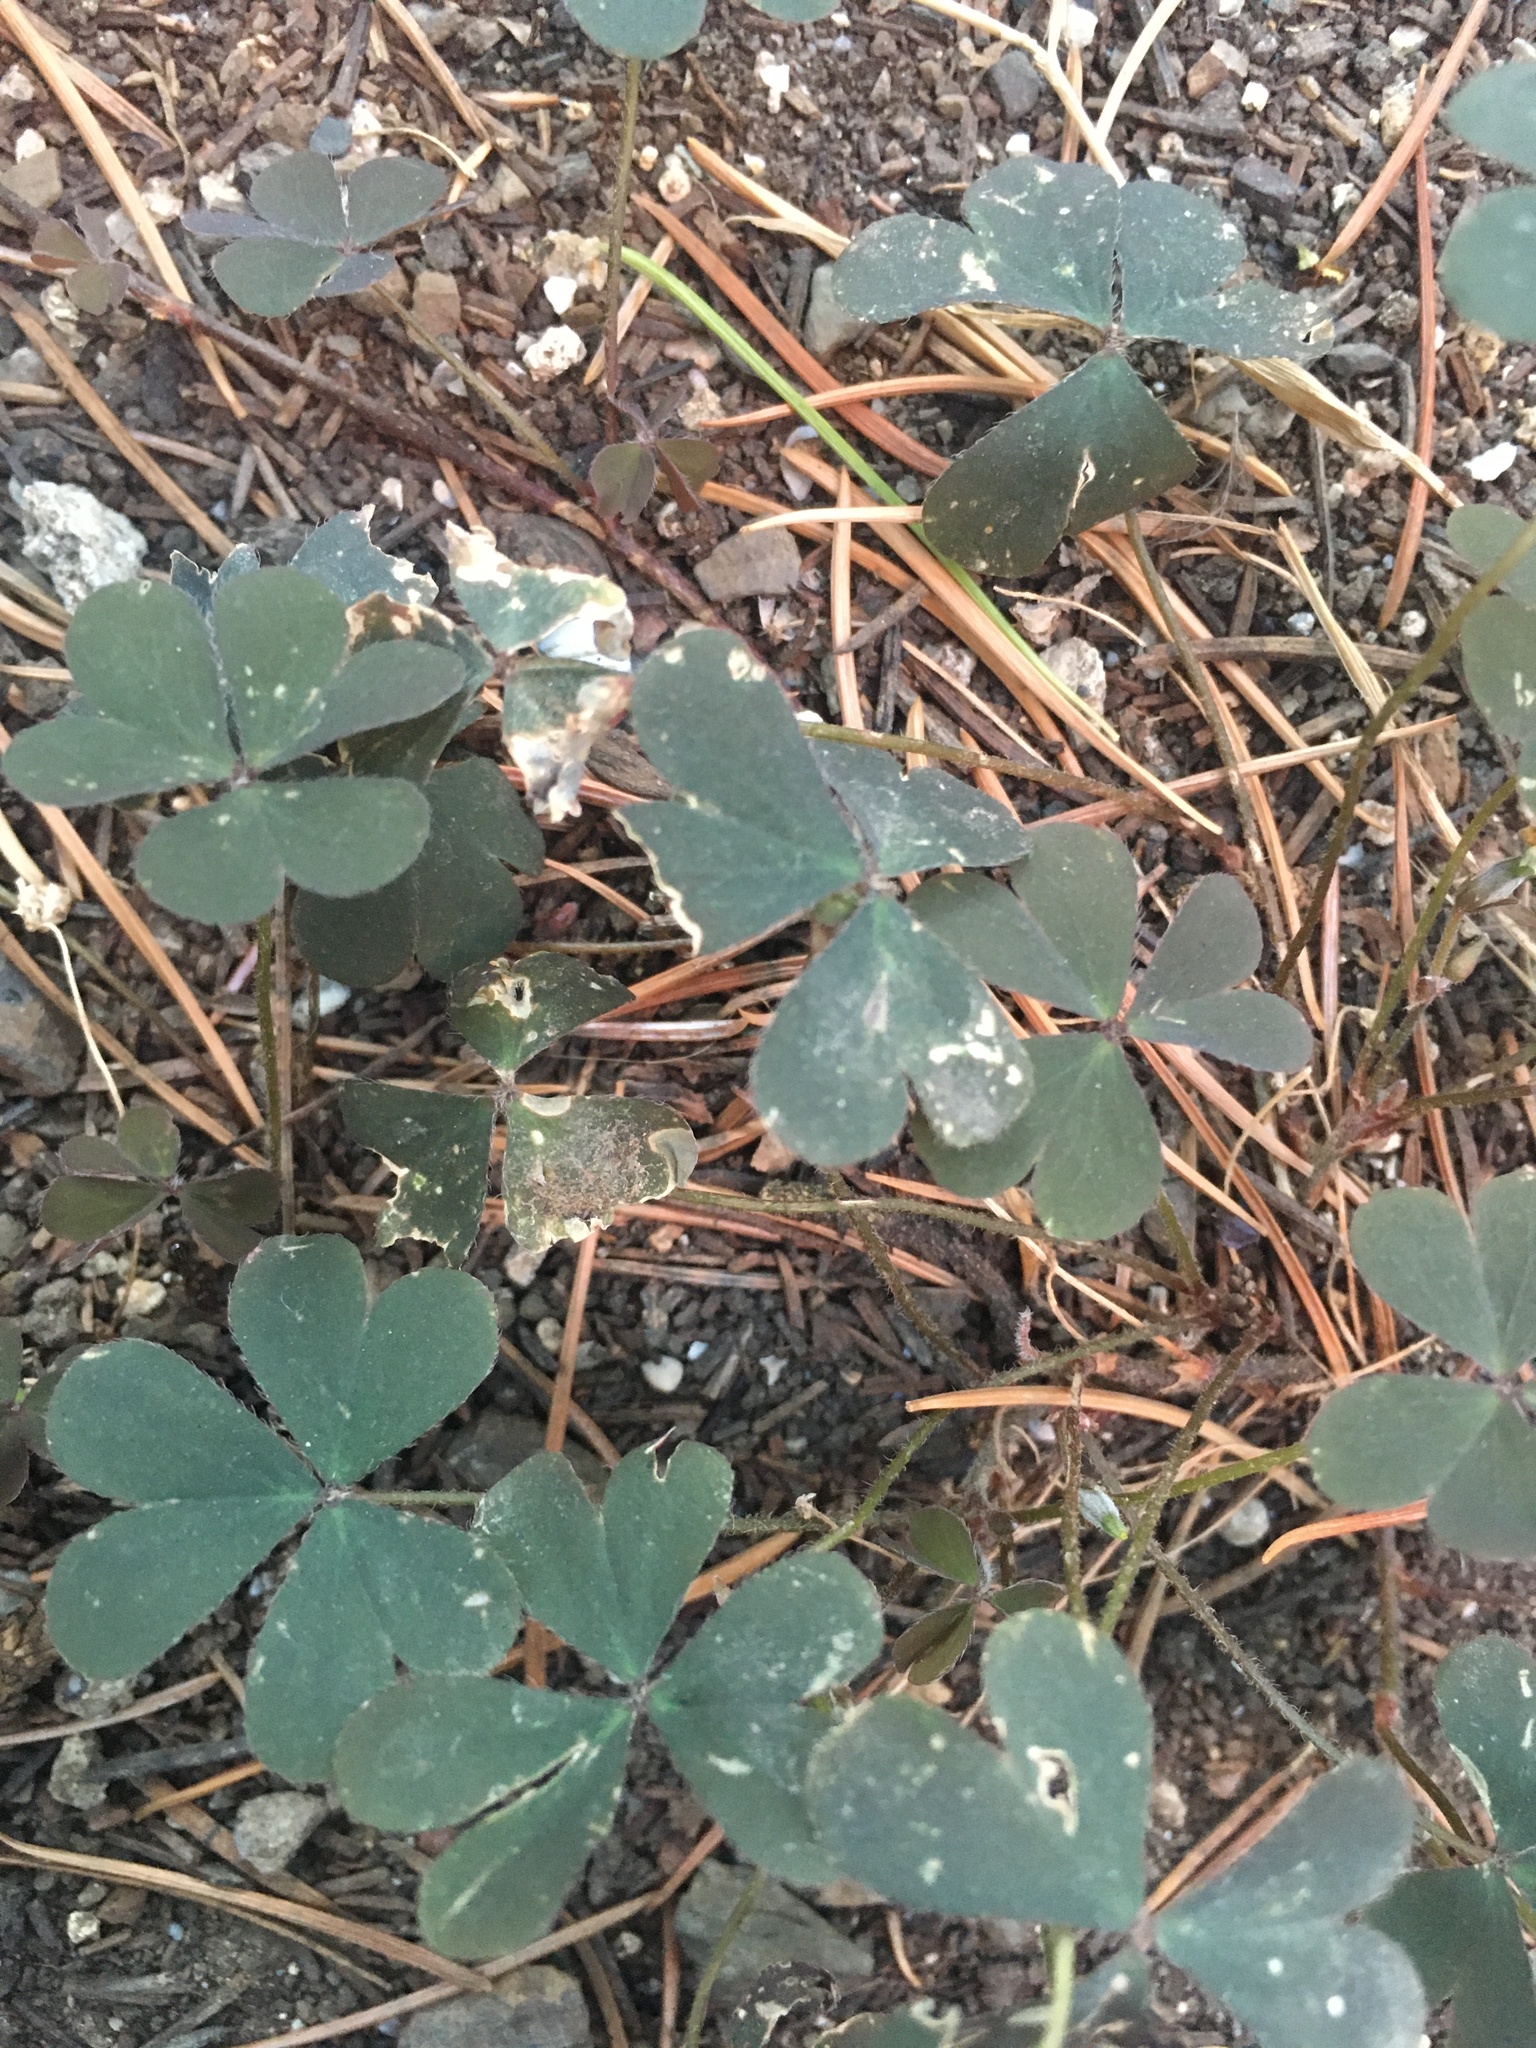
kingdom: Plantae
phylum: Tracheophyta
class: Magnoliopsida
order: Oxalidales
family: Oxalidaceae
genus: Oxalis
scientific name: Oxalis corniculata
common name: Procumbent yellow-sorrel
